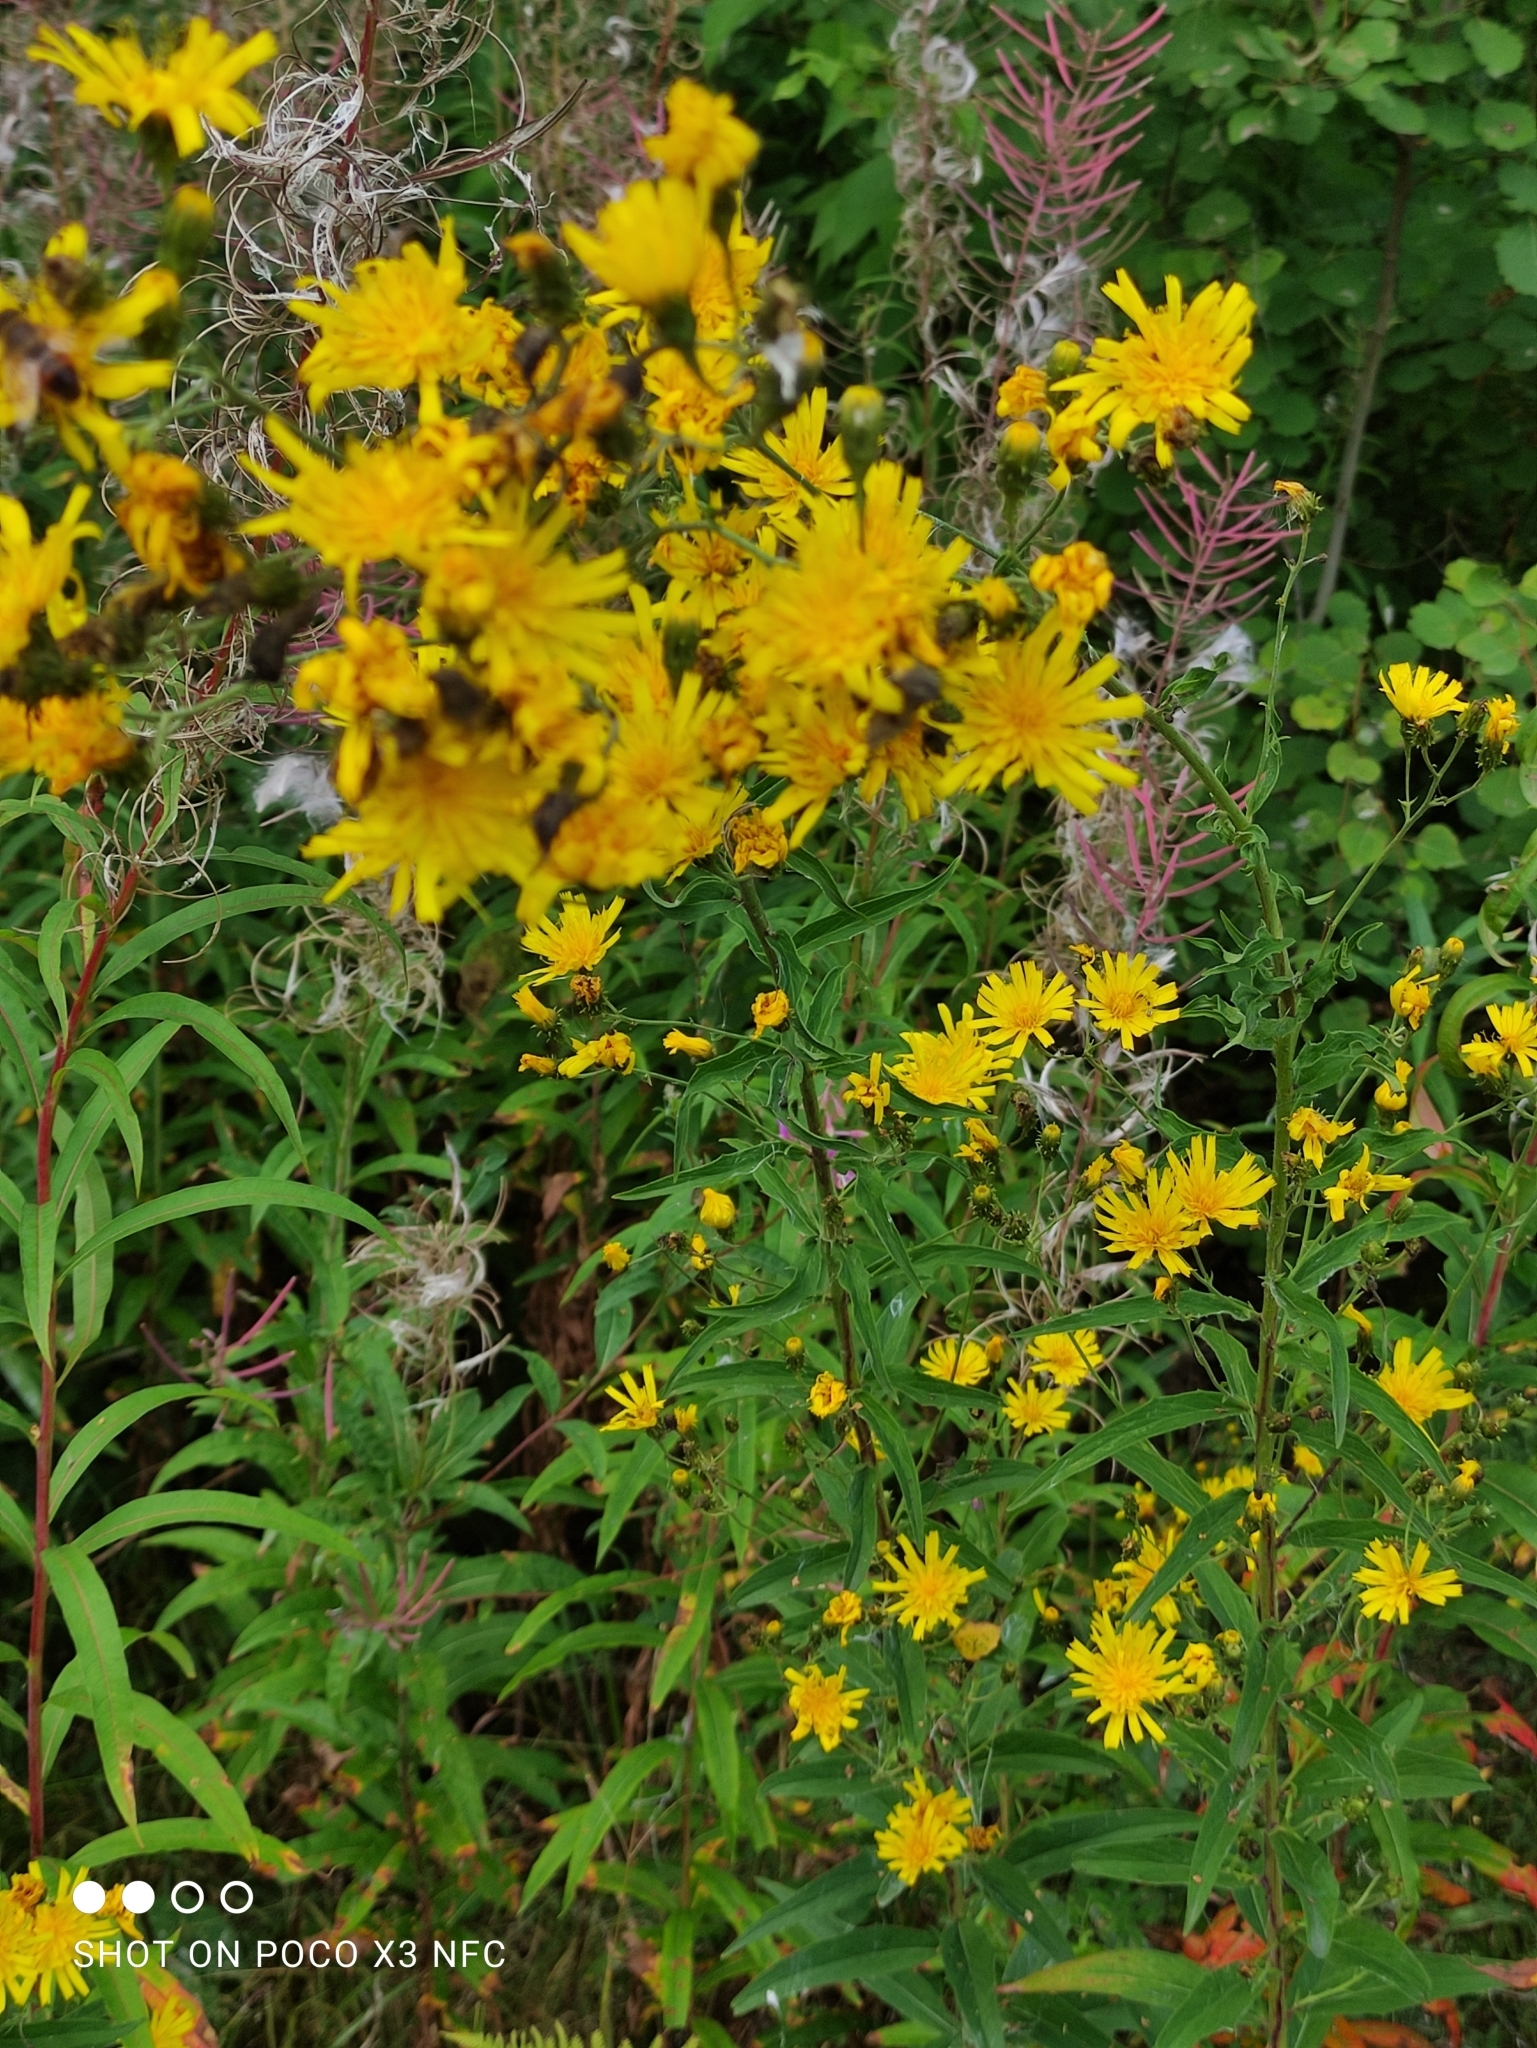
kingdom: Plantae
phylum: Tracheophyta
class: Magnoliopsida
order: Asterales
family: Asteraceae
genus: Hieracium
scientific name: Hieracium umbellatum
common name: Northern hawkweed
